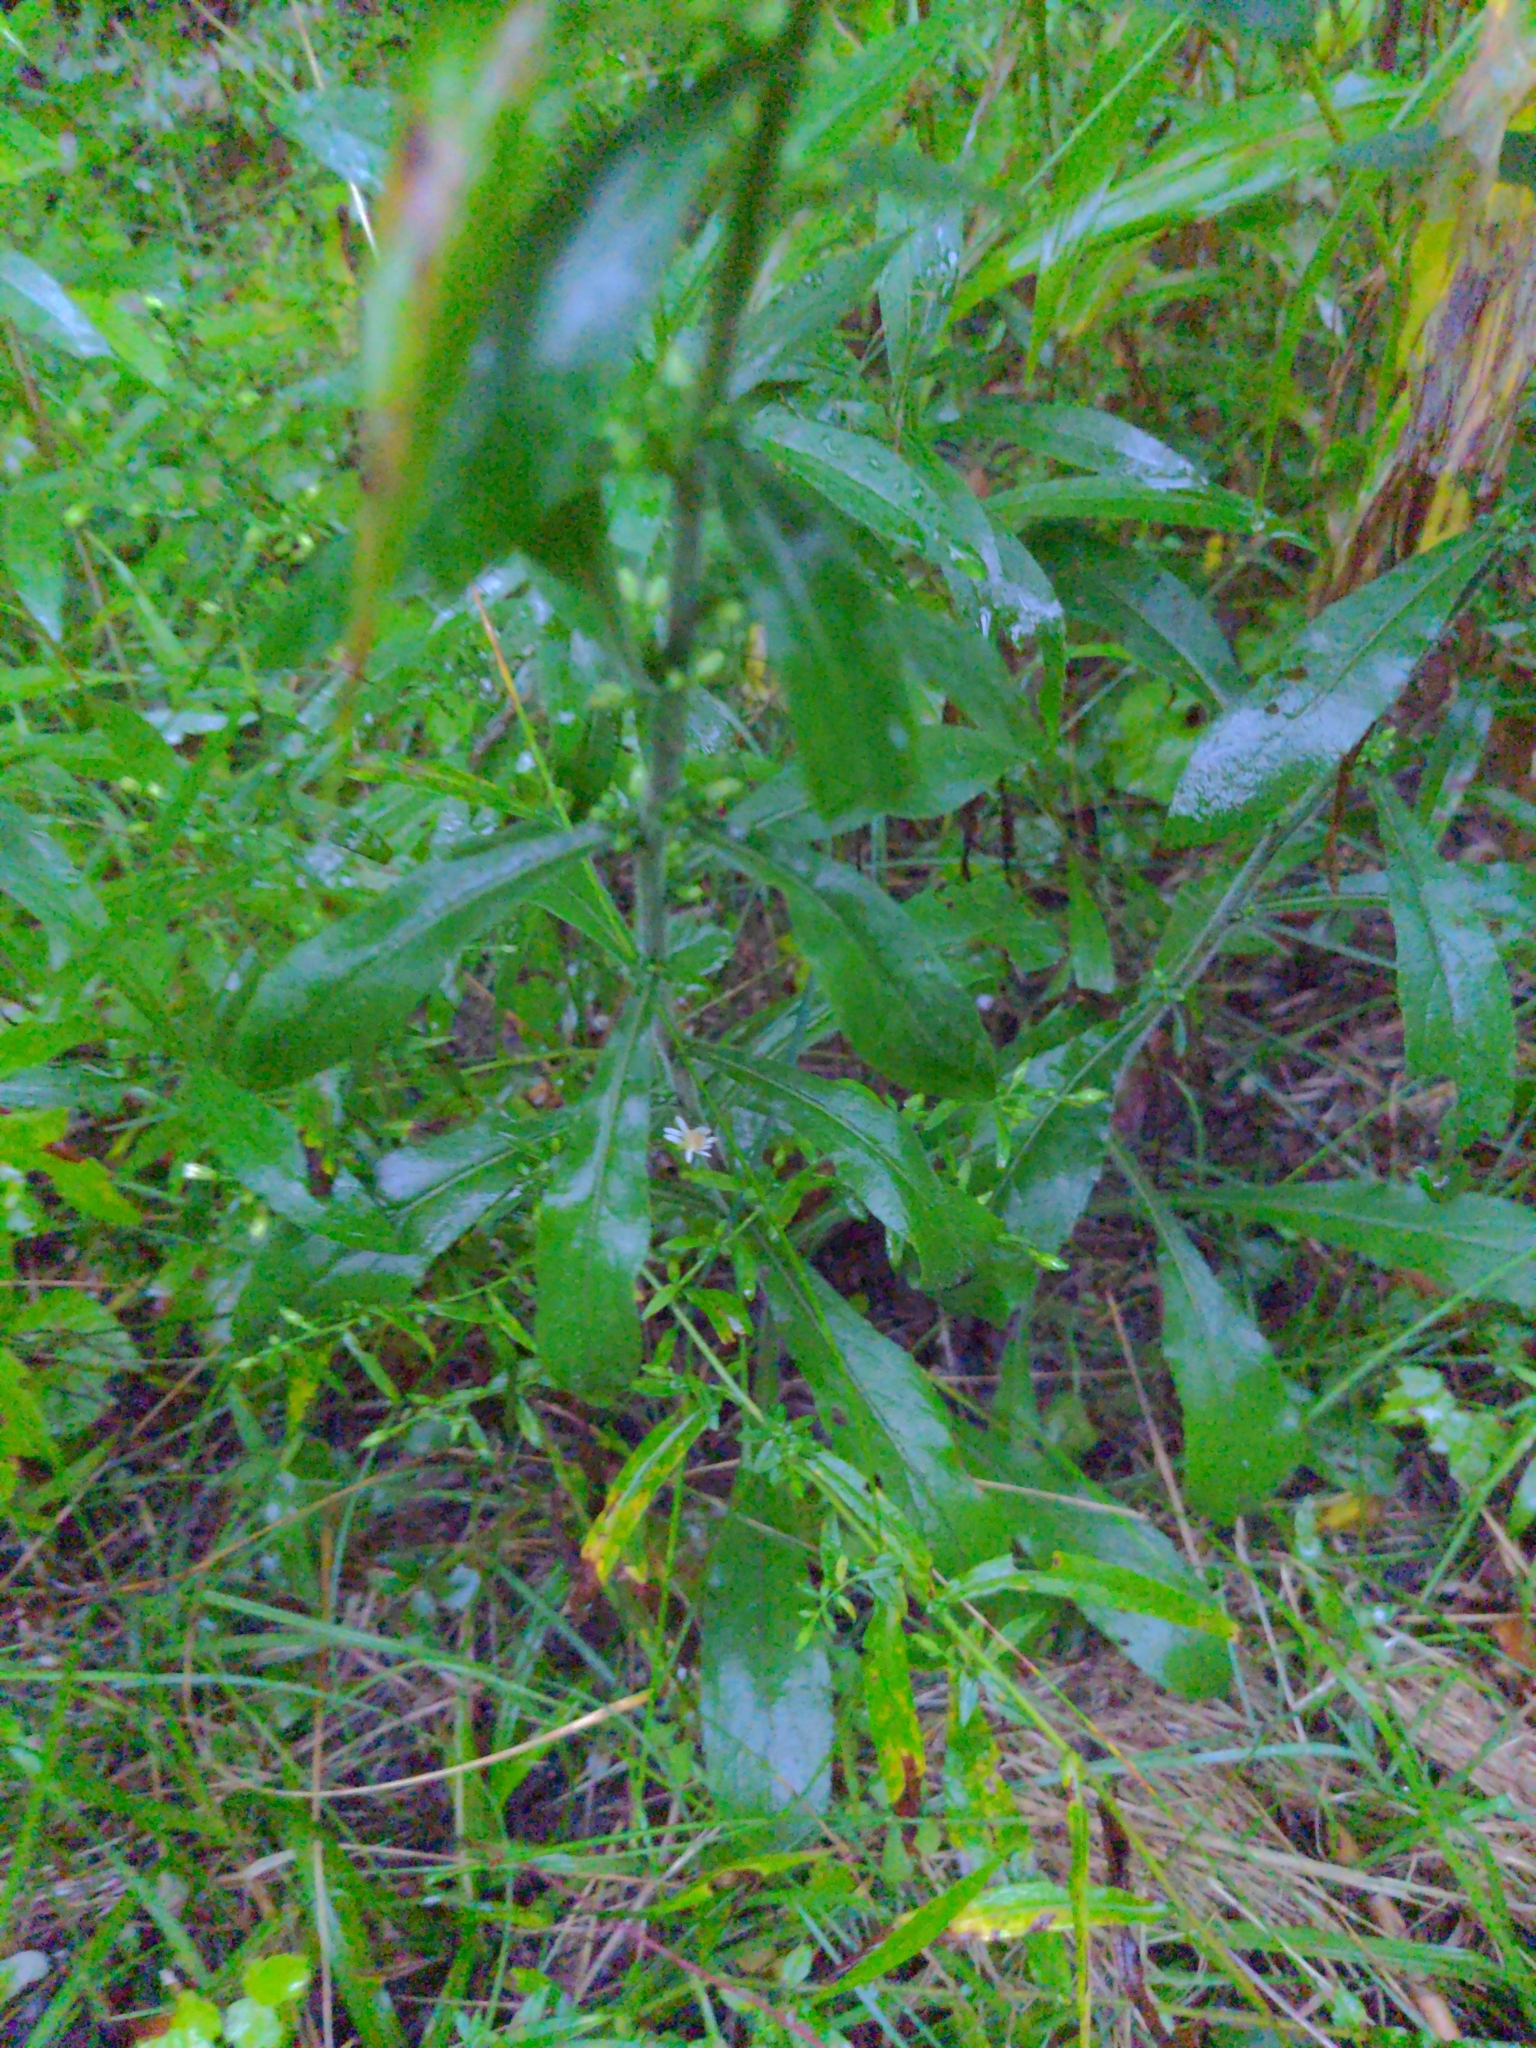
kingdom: Plantae
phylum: Tracheophyta
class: Magnoliopsida
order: Asterales
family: Asteraceae
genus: Solidago
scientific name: Solidago bicolor
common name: Silverrod
